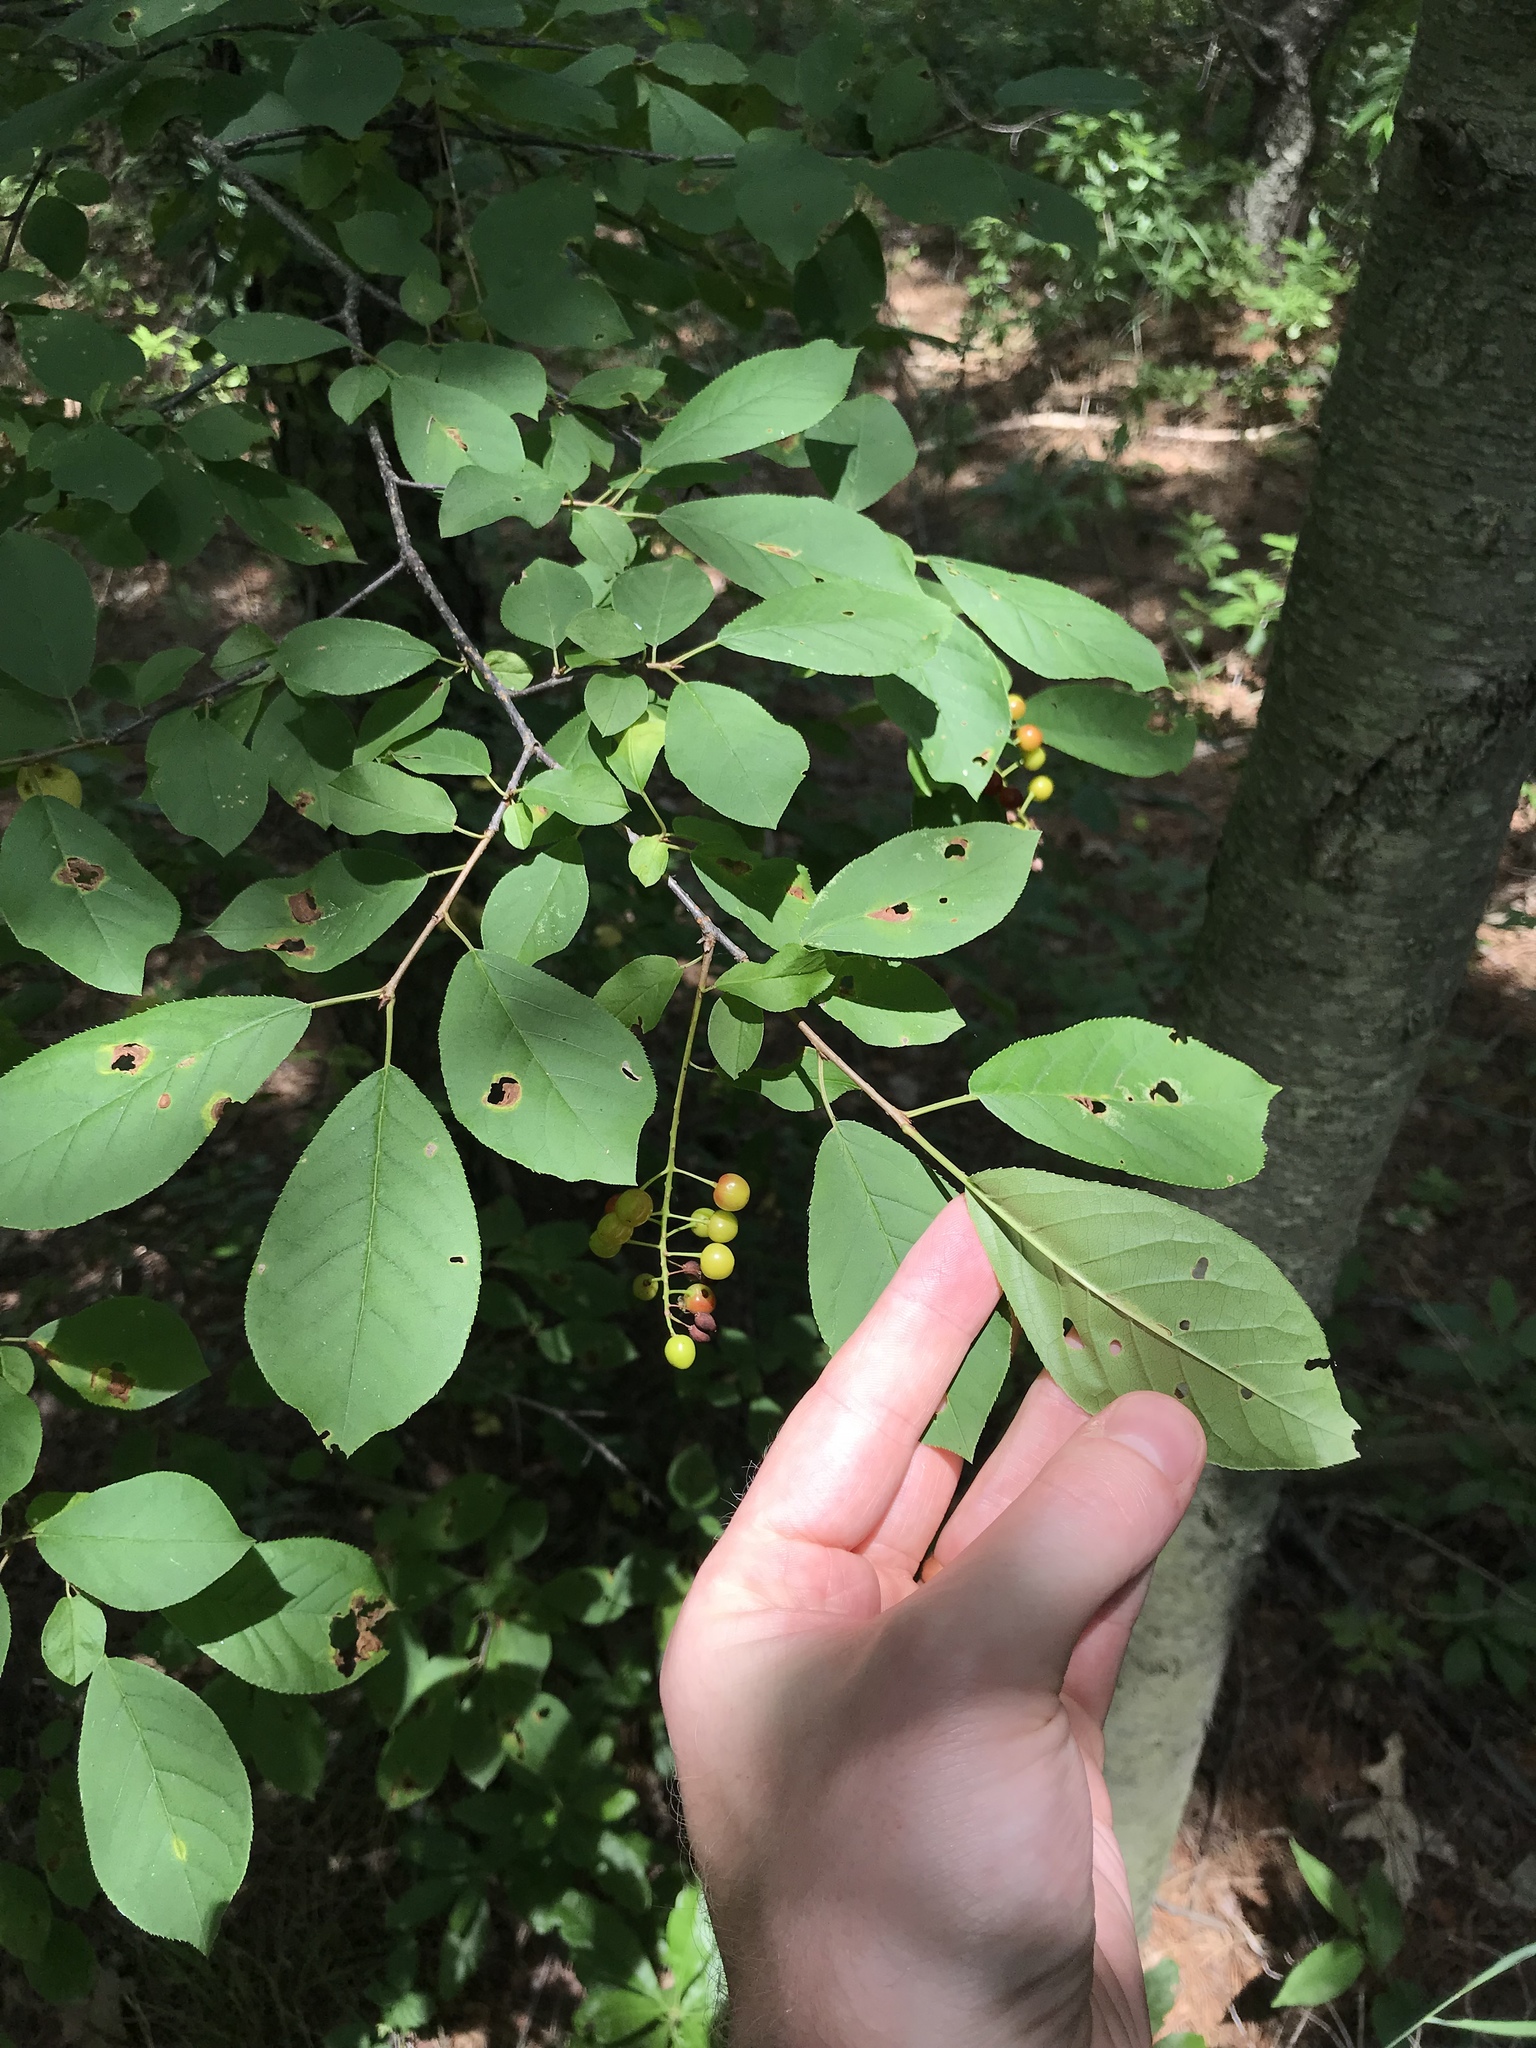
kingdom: Plantae
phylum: Tracheophyta
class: Magnoliopsida
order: Rosales
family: Rosaceae
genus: Prunus
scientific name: Prunus virginiana
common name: Chokecherry
